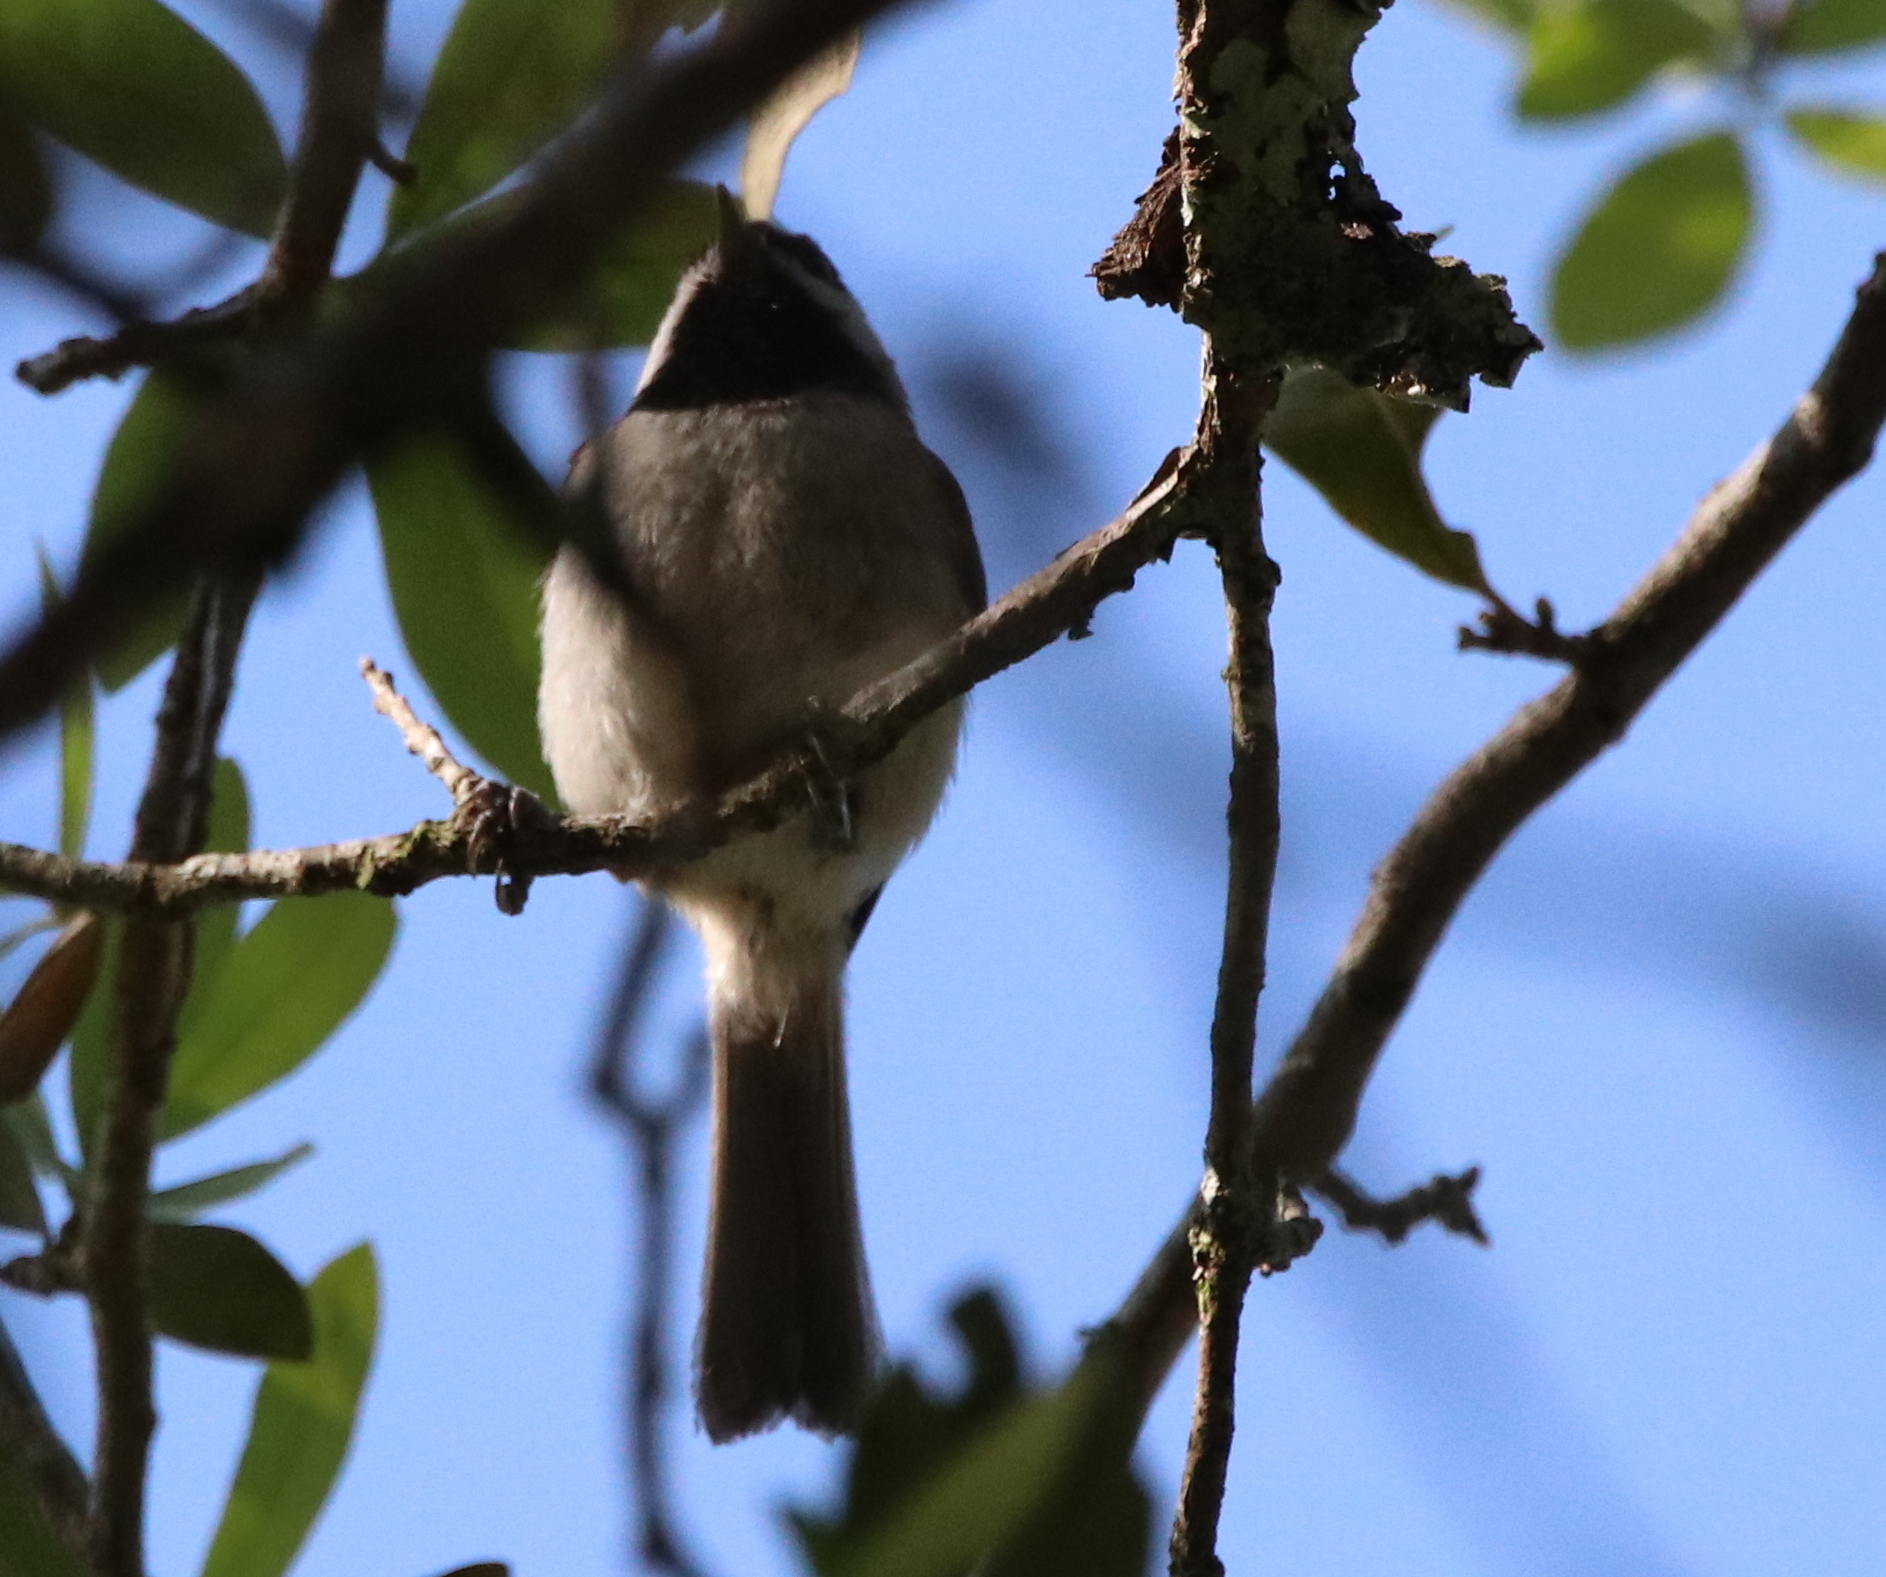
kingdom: Animalia
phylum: Chordata
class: Aves
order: Passeriformes
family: Paridae
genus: Poecile
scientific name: Poecile carolinensis
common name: Carolina chickadee
